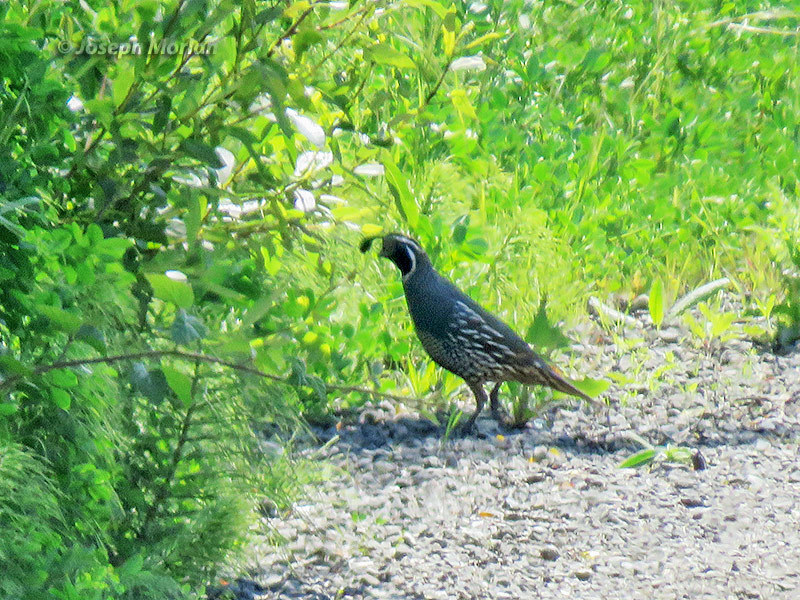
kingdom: Animalia
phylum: Chordata
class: Aves
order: Galliformes
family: Odontophoridae
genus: Callipepla
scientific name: Callipepla californica
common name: California quail
